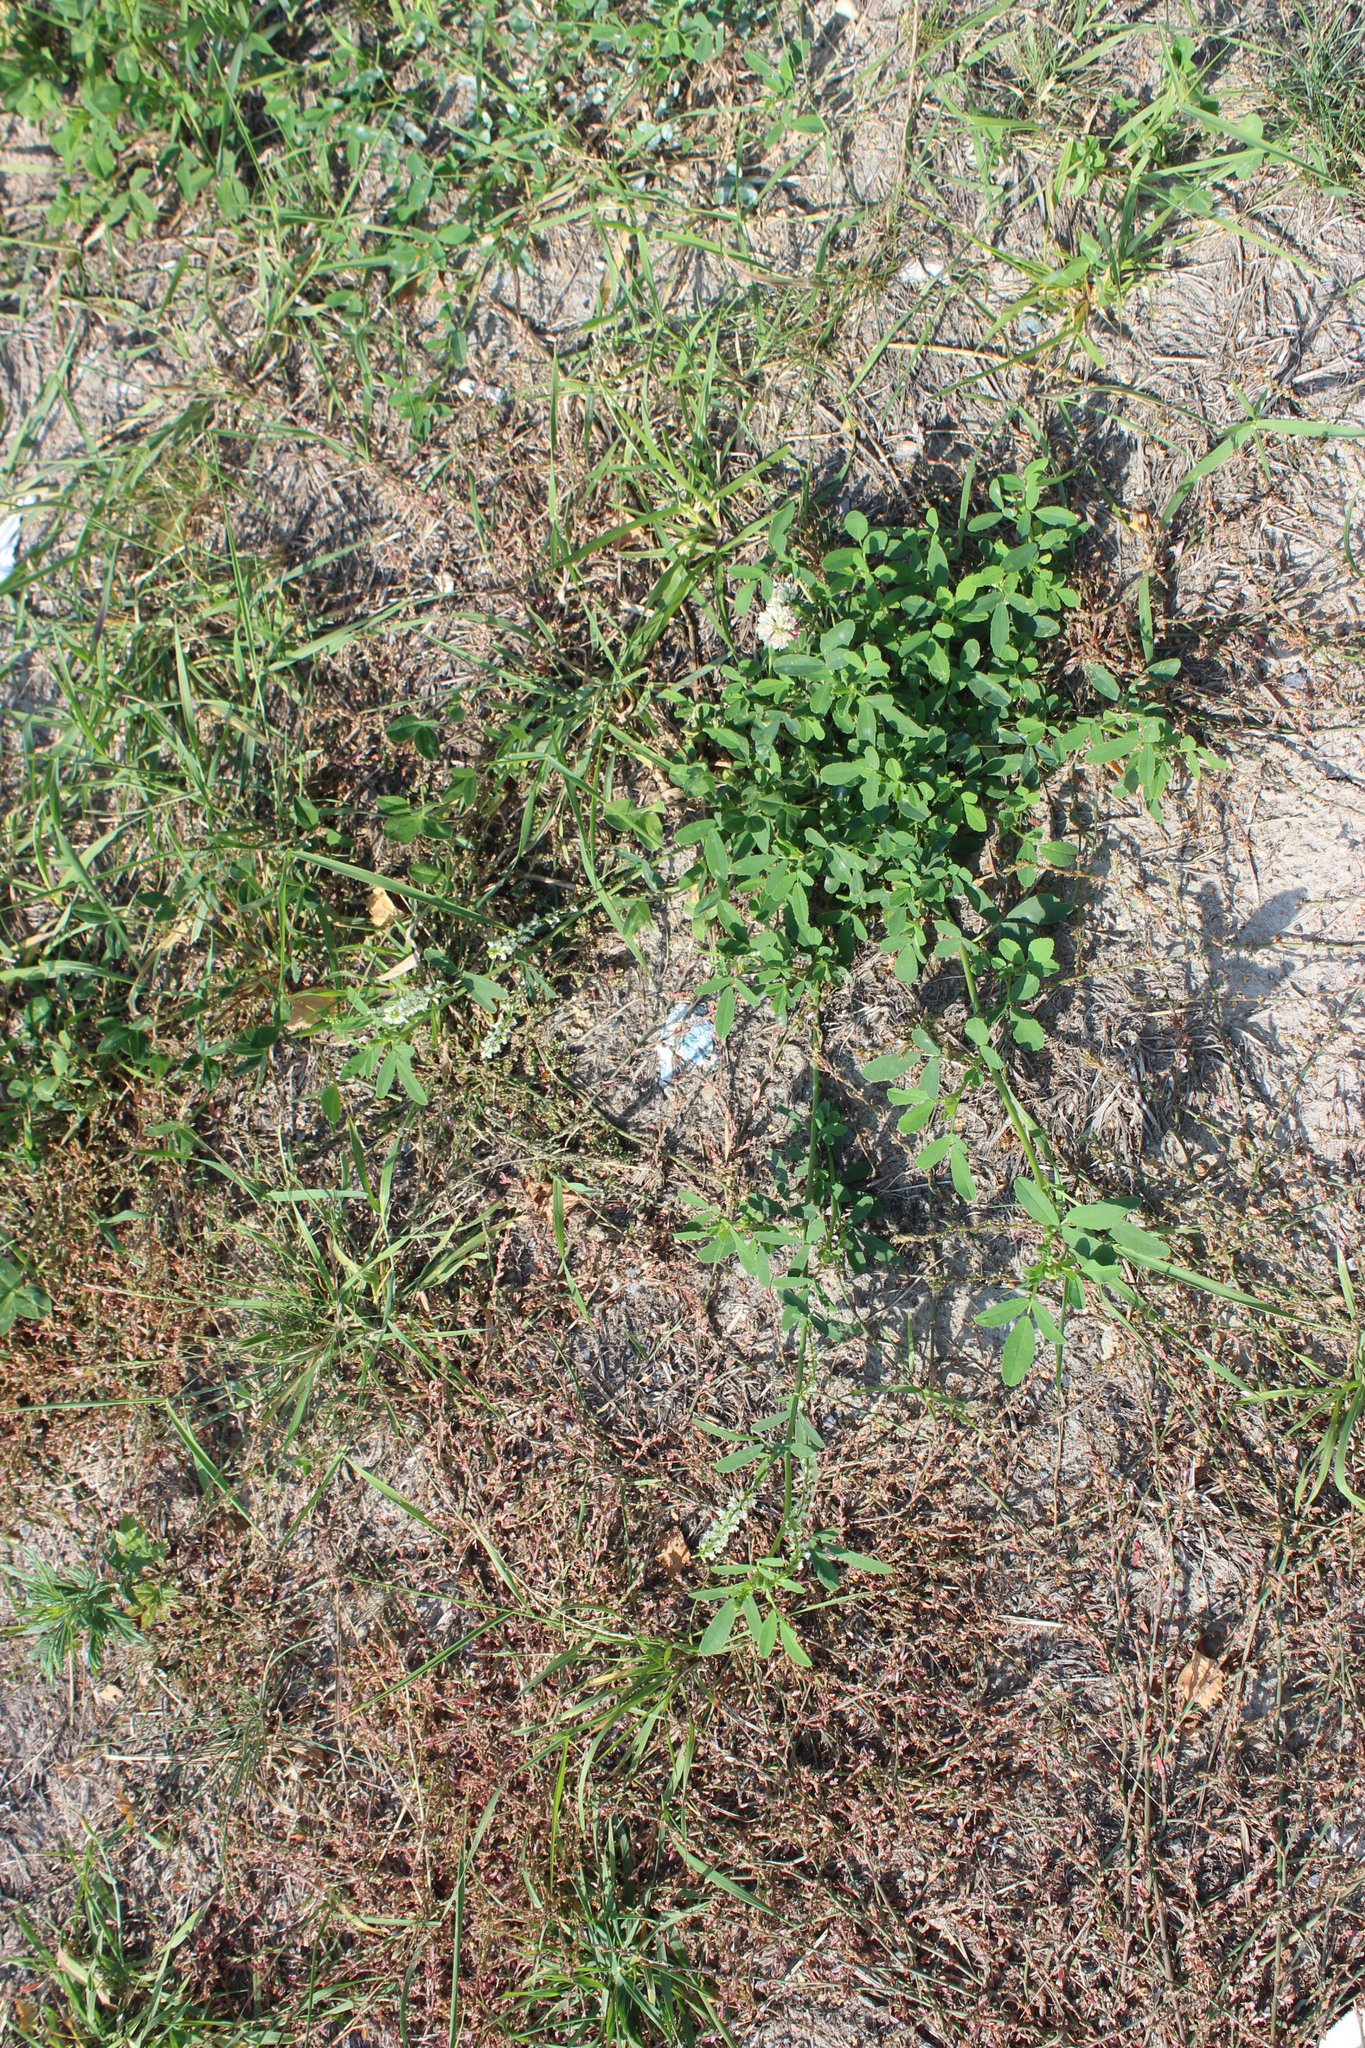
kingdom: Plantae
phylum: Tracheophyta
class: Magnoliopsida
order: Fabales
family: Fabaceae
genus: Melilotus
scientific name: Melilotus officinalis
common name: Sweetclover
